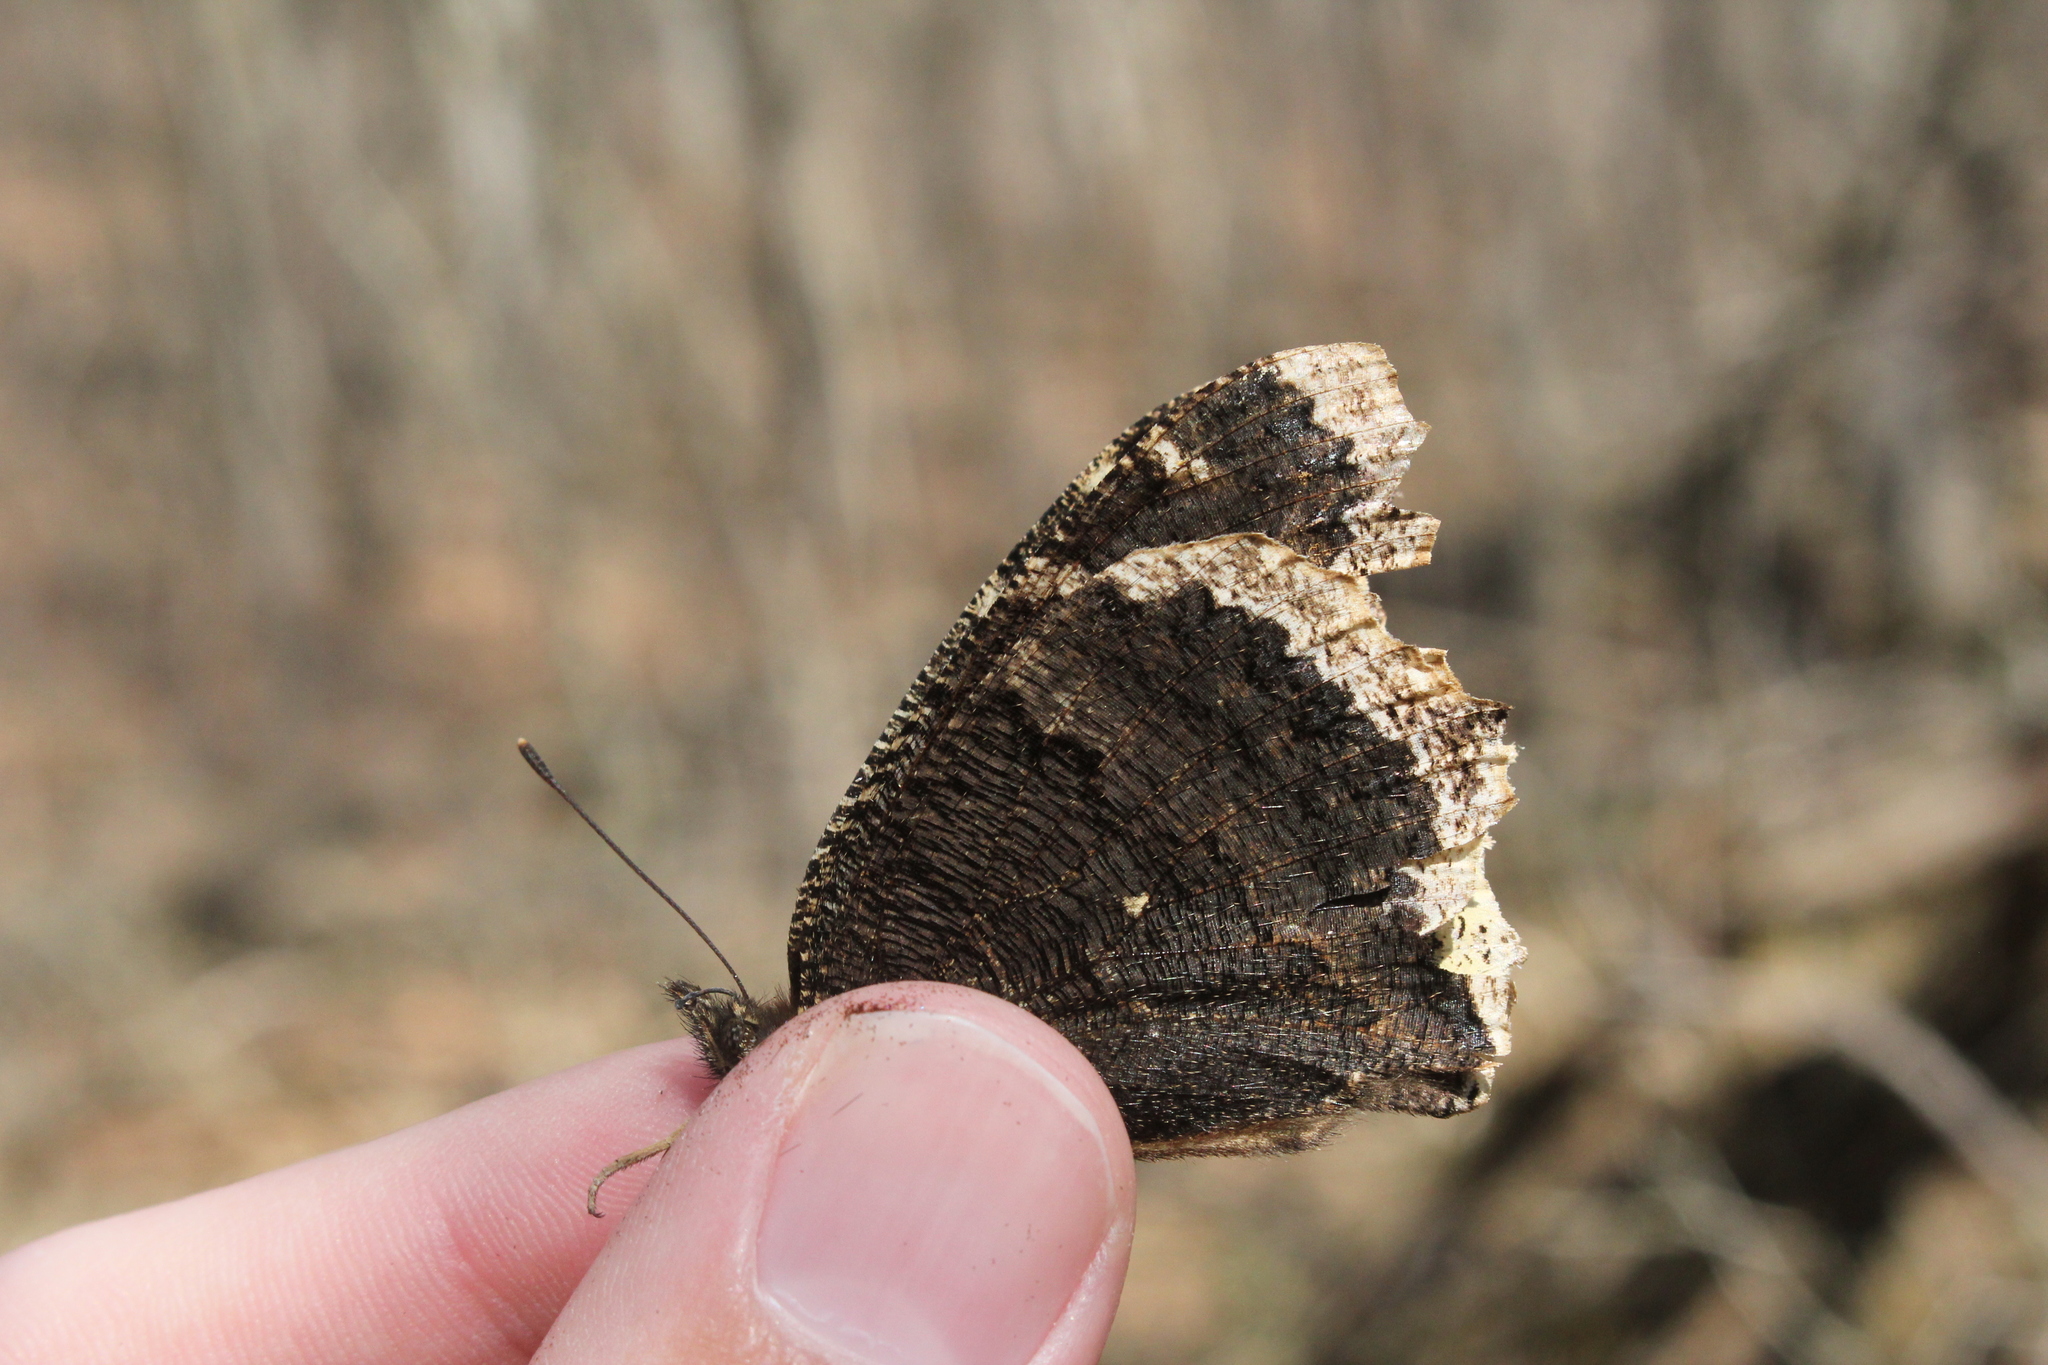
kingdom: Animalia
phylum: Arthropoda
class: Insecta
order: Lepidoptera
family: Nymphalidae
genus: Nymphalis
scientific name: Nymphalis antiopa
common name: Camberwell beauty
